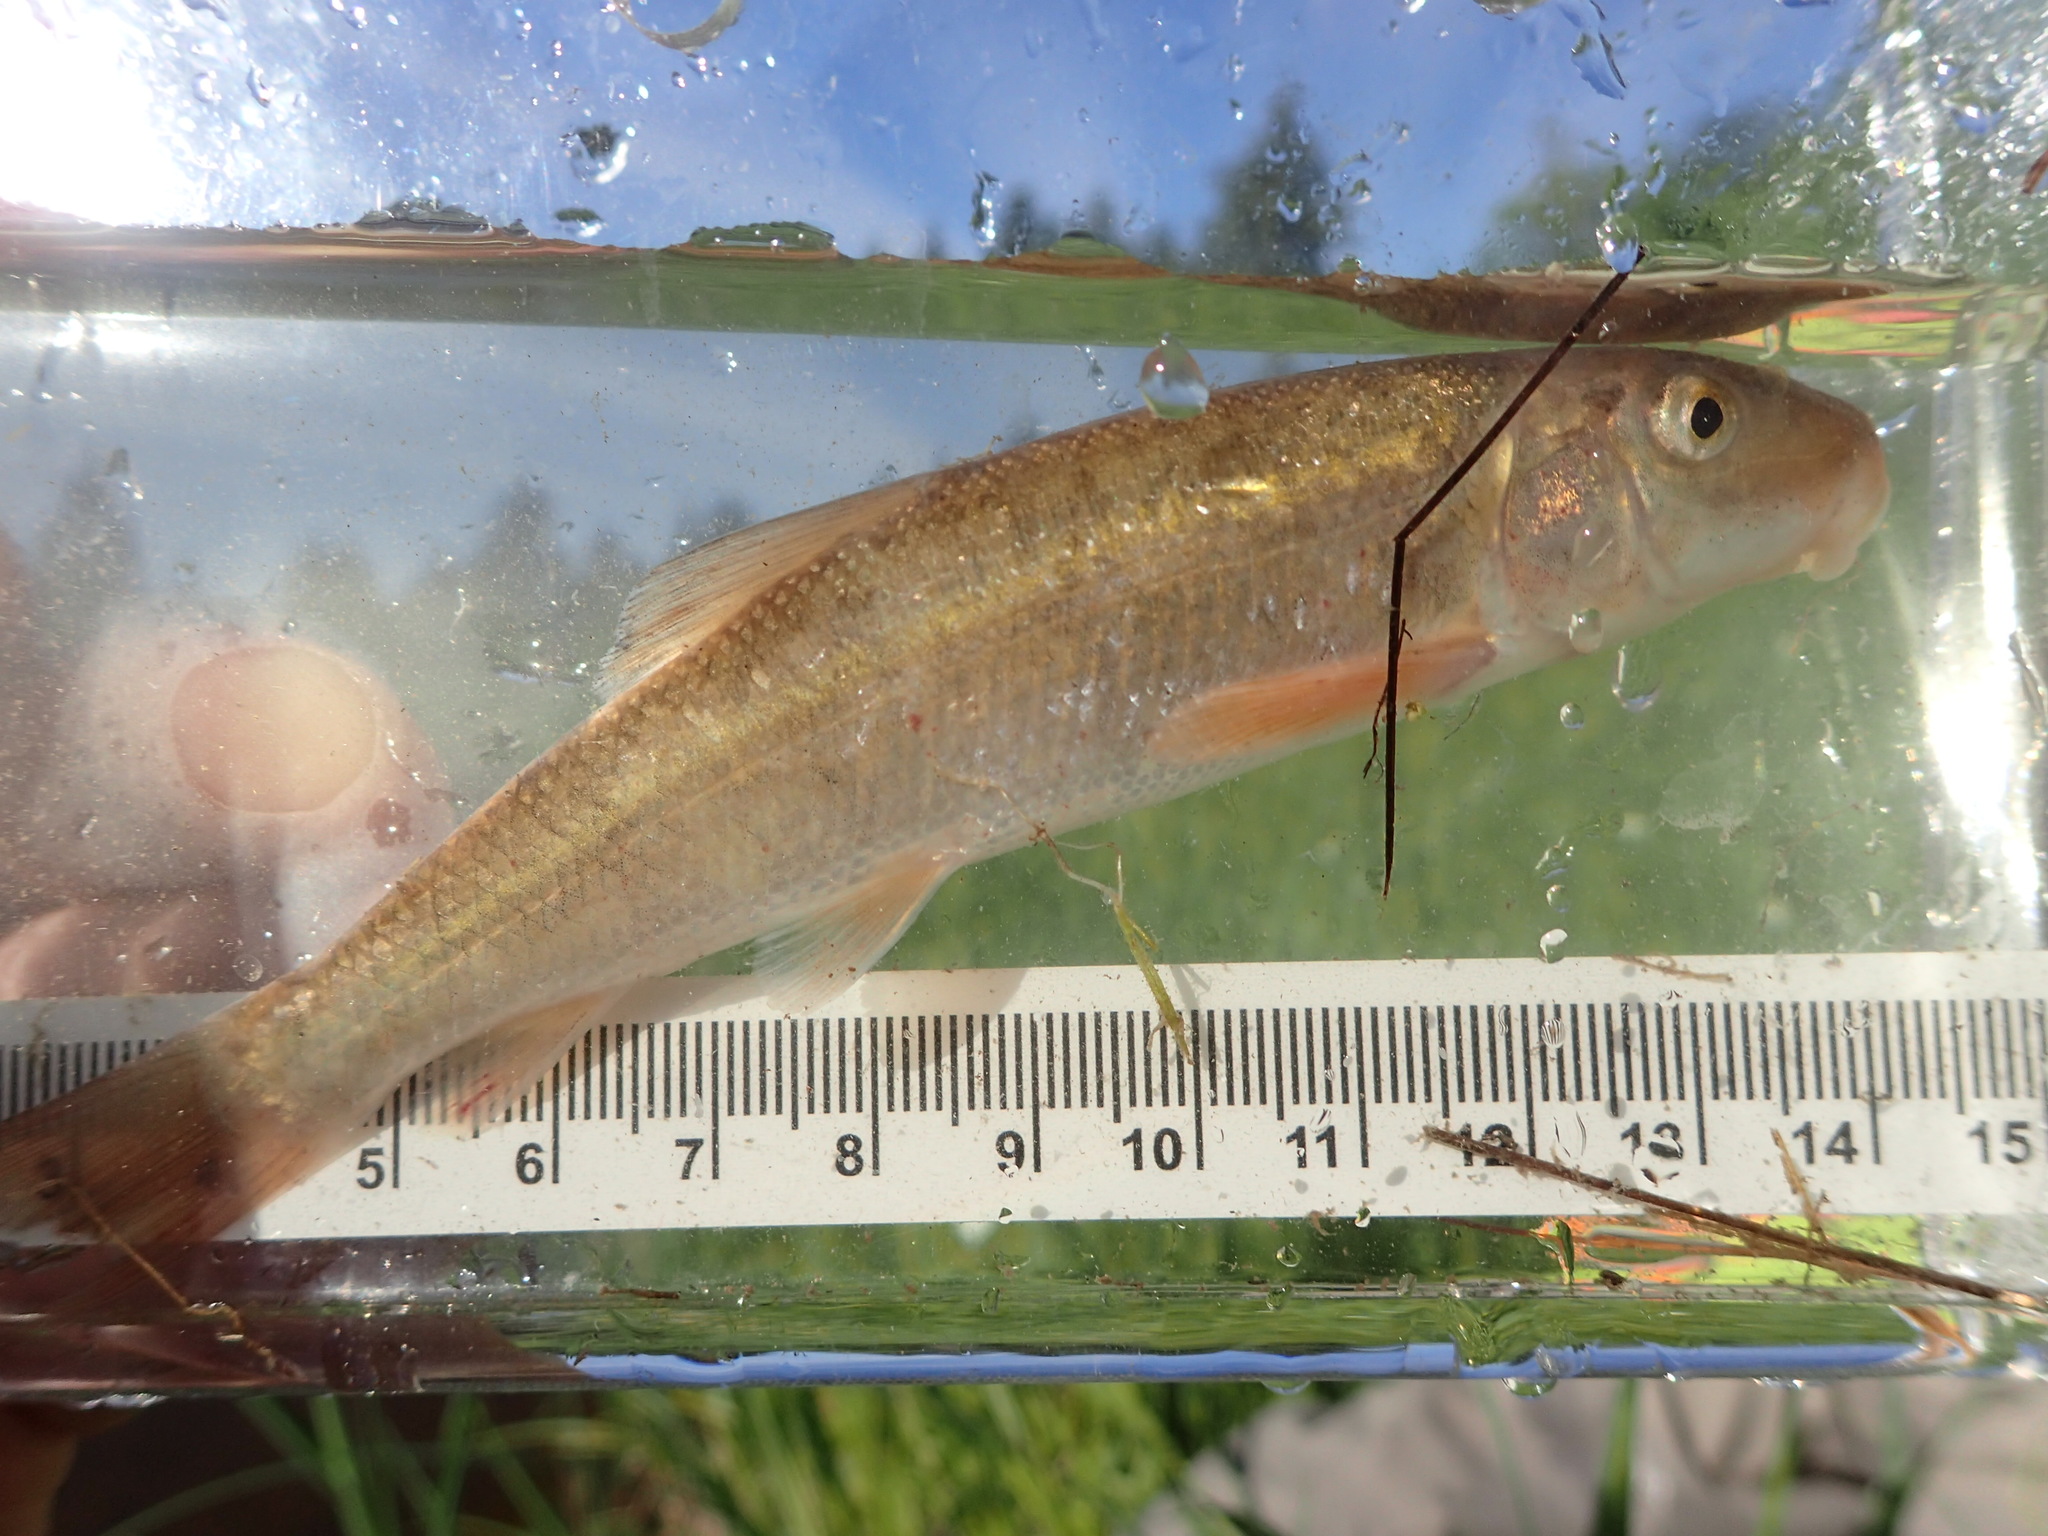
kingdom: Animalia
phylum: Chordata
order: Cypriniformes
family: Catostomidae
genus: Catostomus
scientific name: Catostomus commersonii
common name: White sucker
